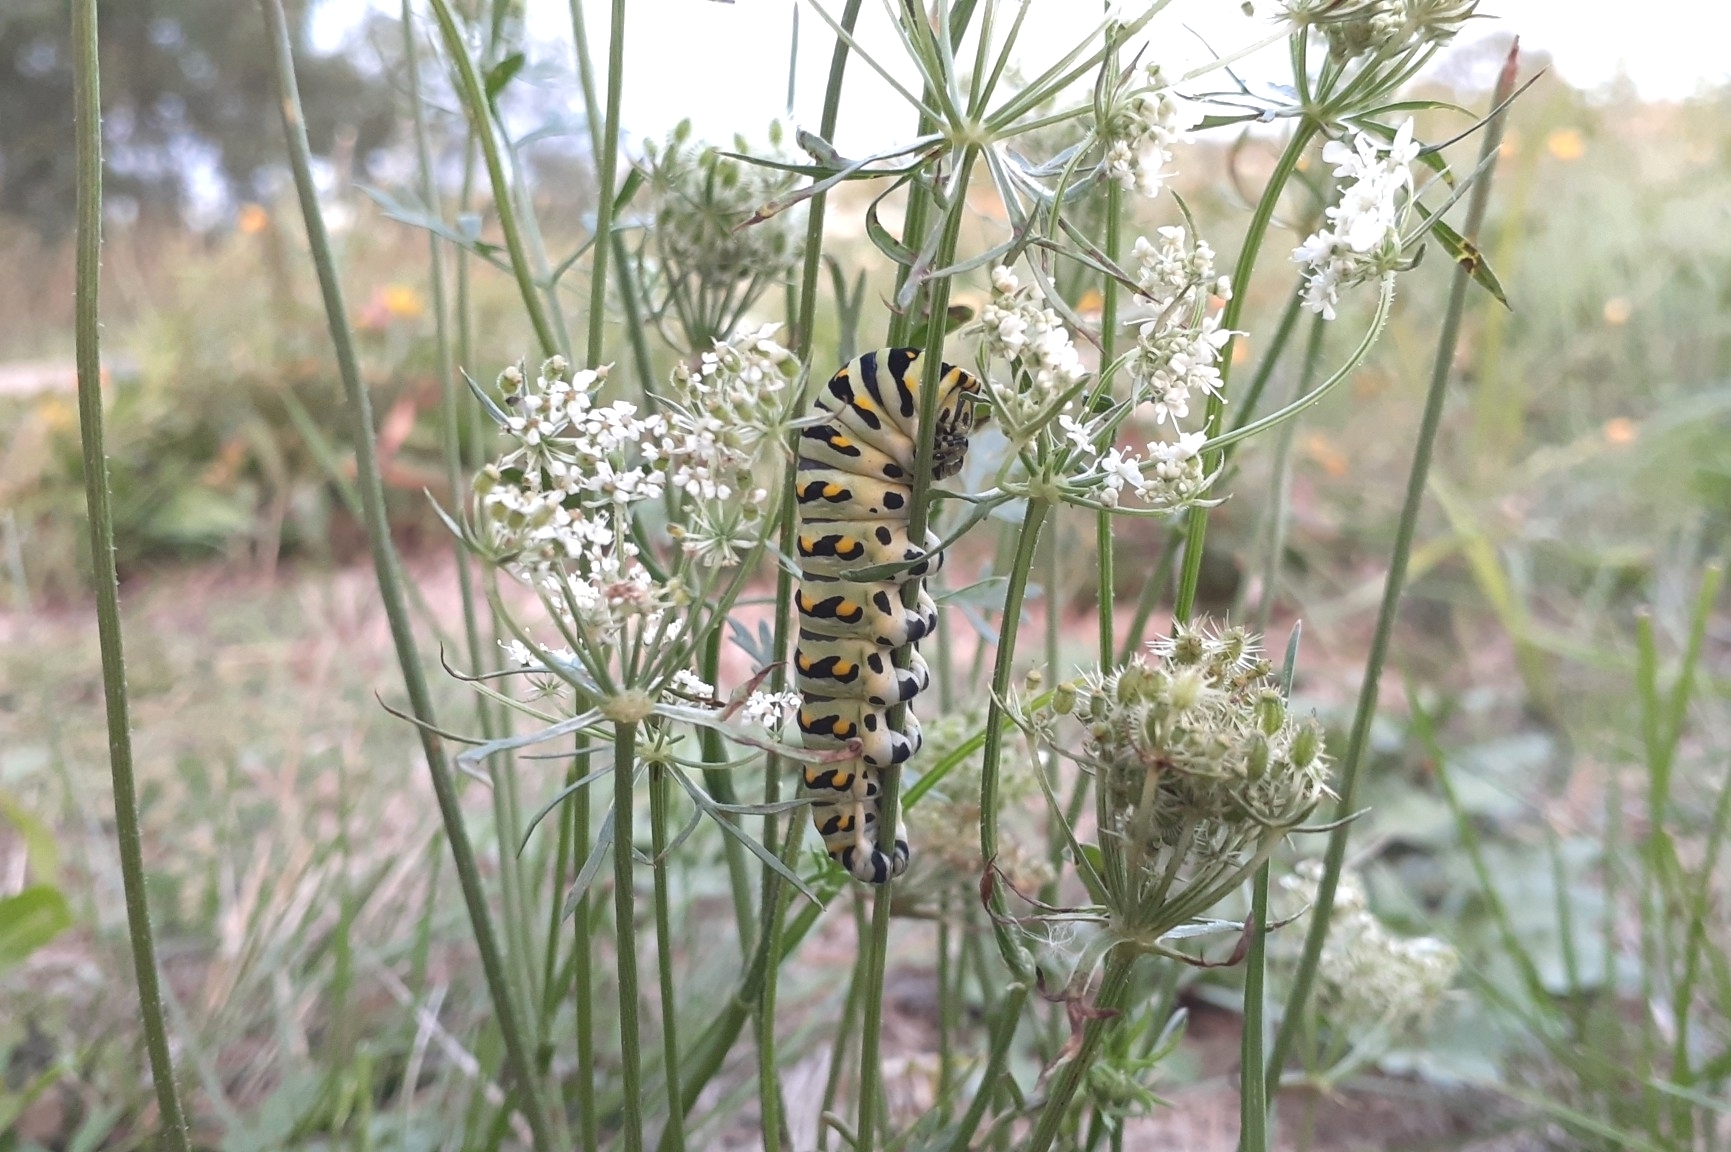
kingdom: Animalia
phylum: Arthropoda
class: Insecta
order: Lepidoptera
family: Papilionidae
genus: Papilio
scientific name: Papilio polyxenes
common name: Black swallowtail
